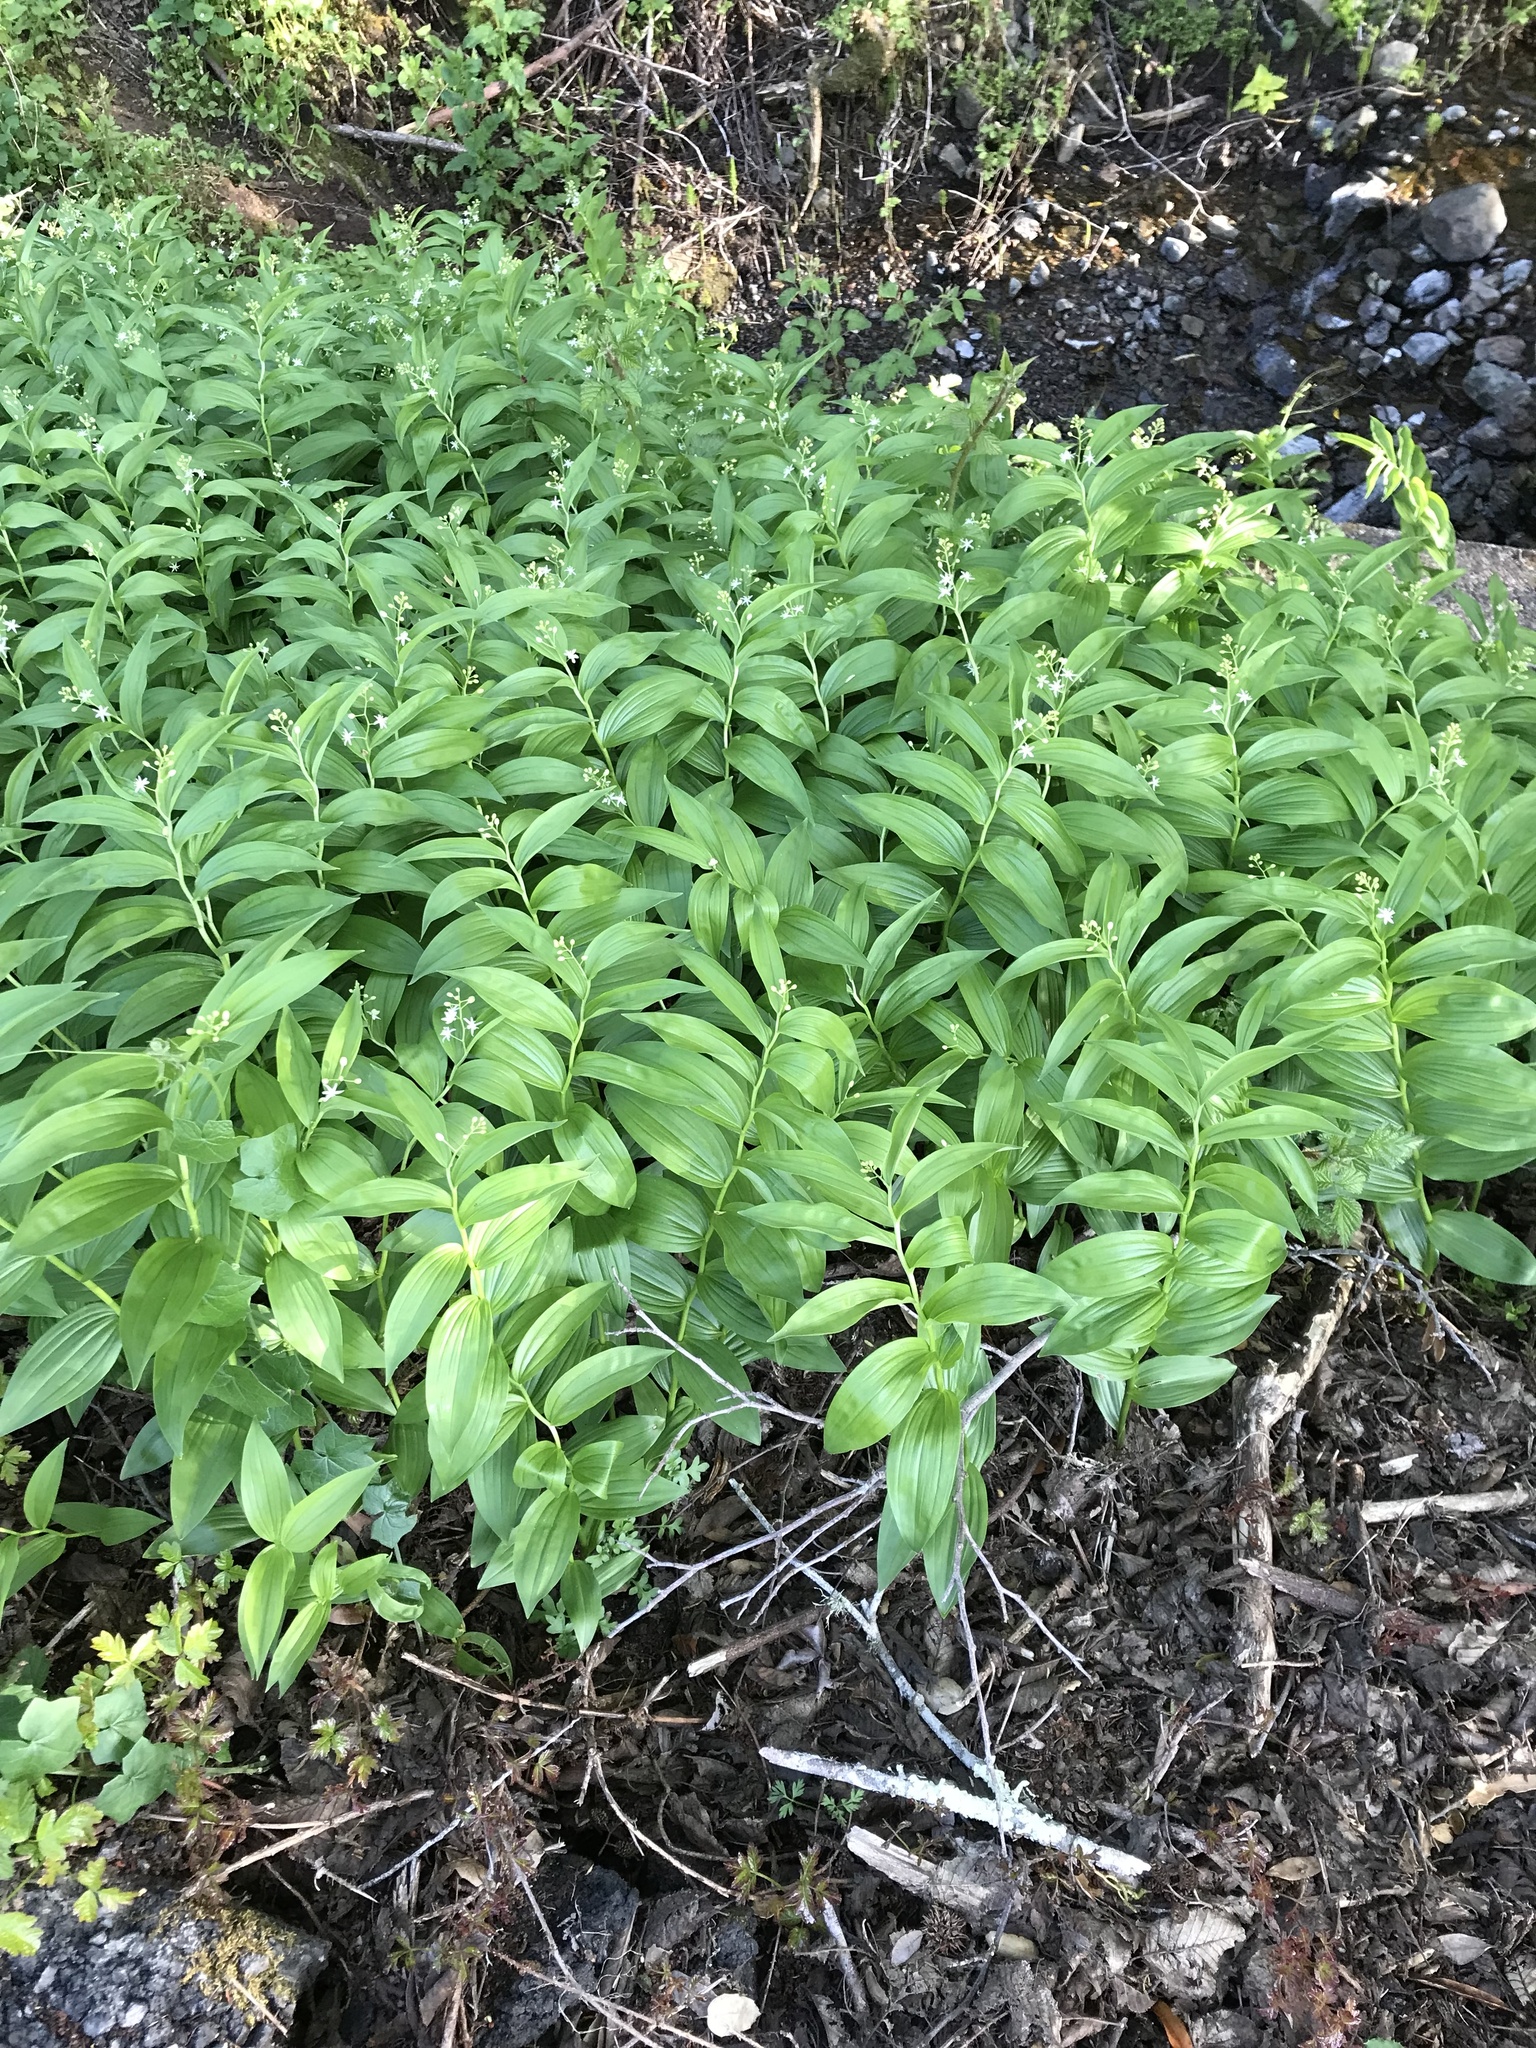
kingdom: Plantae
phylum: Tracheophyta
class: Liliopsida
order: Asparagales
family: Asparagaceae
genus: Maianthemum
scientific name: Maianthemum stellatum
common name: Little false solomon's seal
